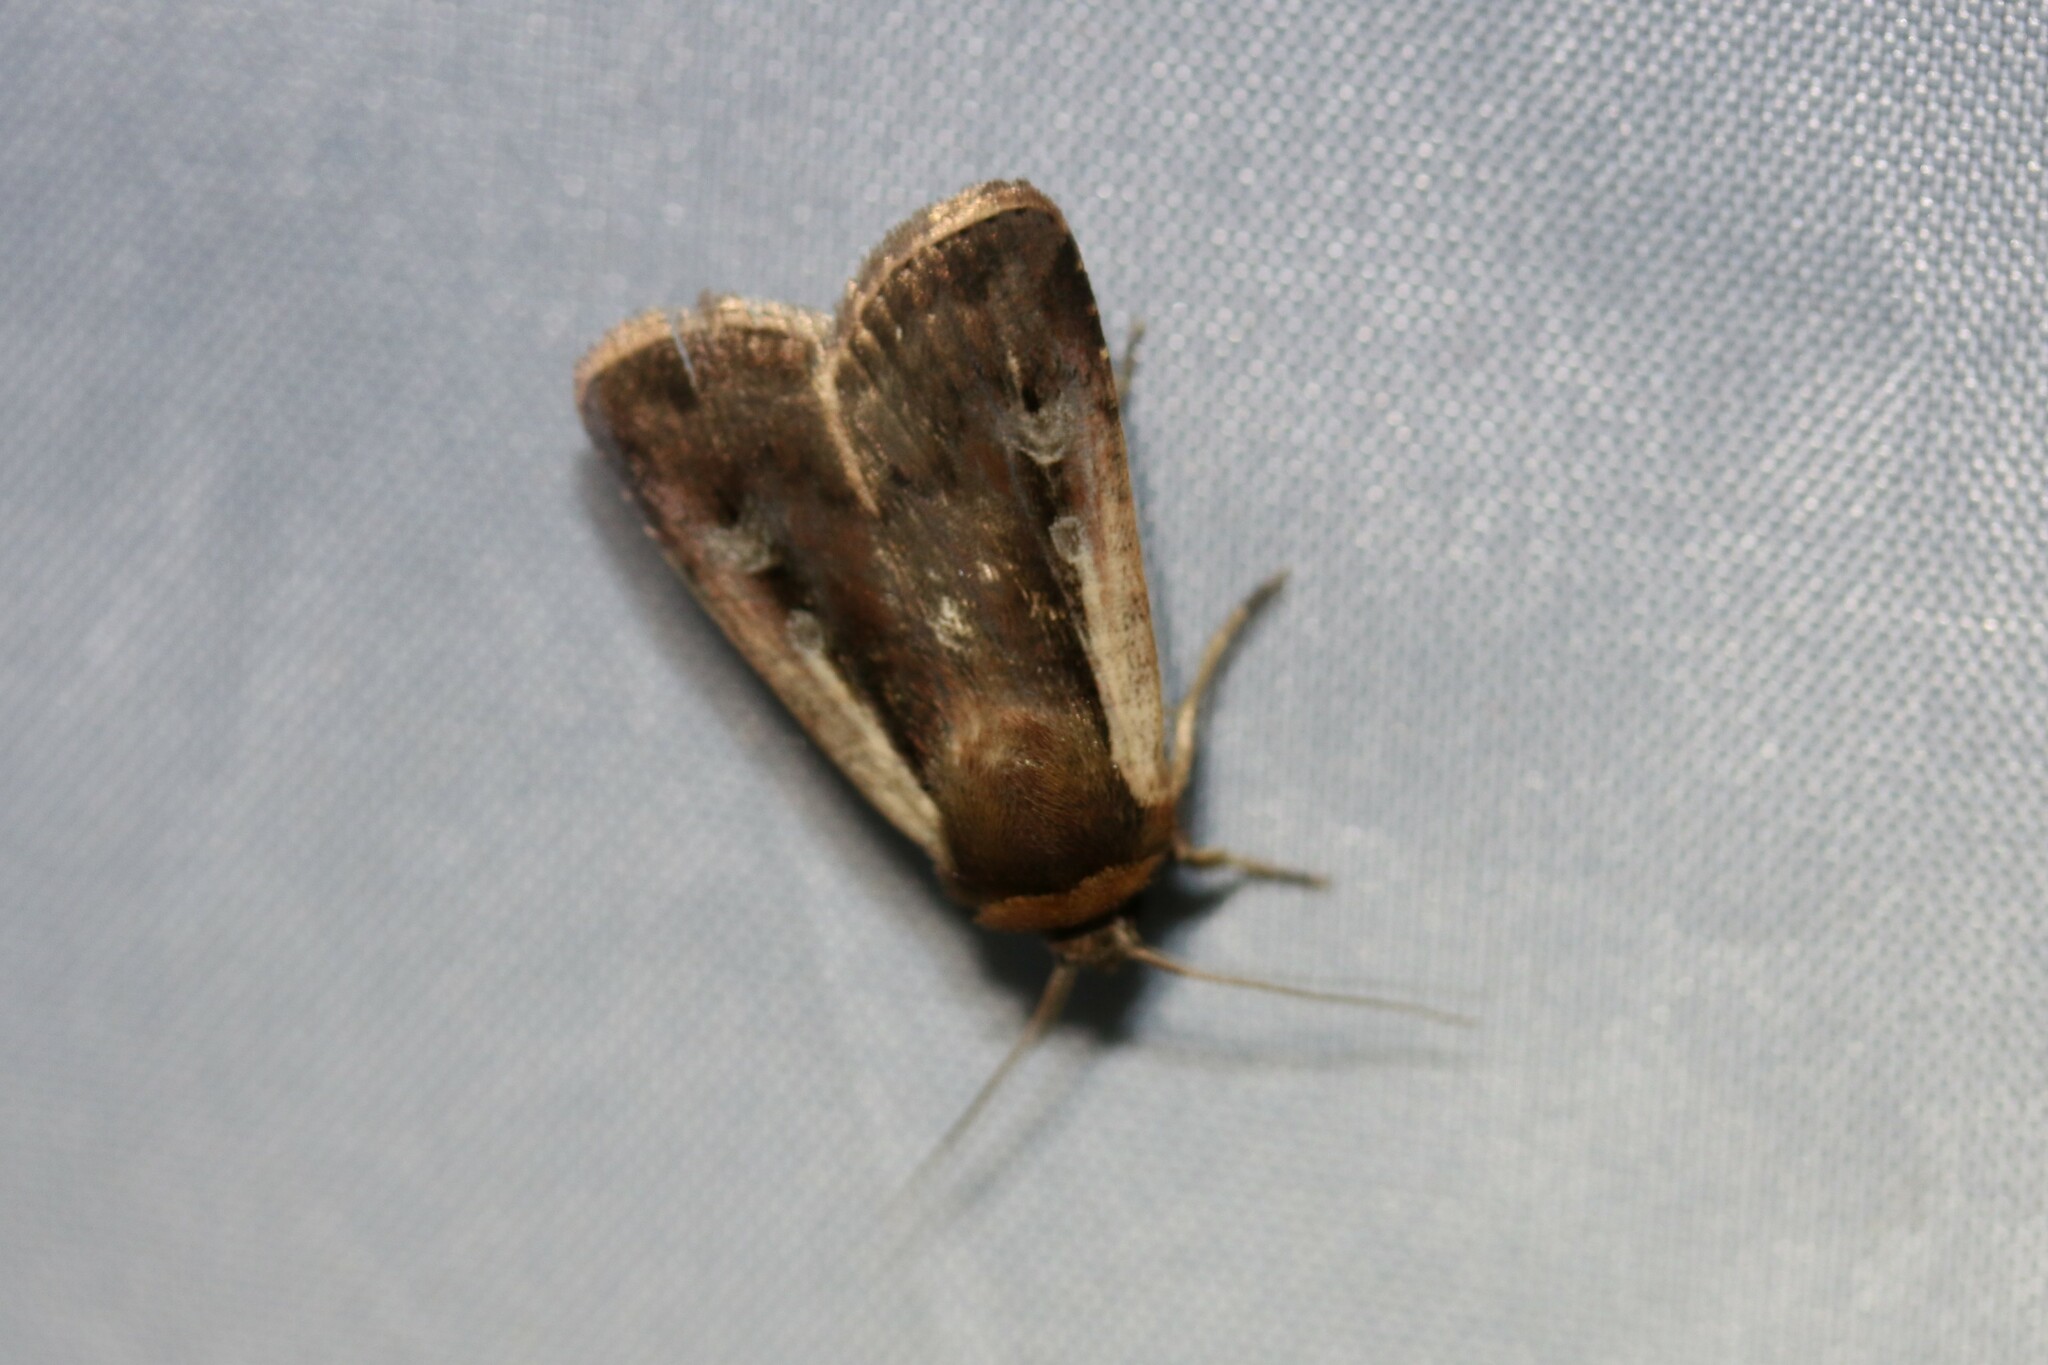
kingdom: Animalia
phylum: Arthropoda
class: Insecta
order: Lepidoptera
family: Noctuidae
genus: Ochropleura
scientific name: Ochropleura plecta
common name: Flame shoulder
